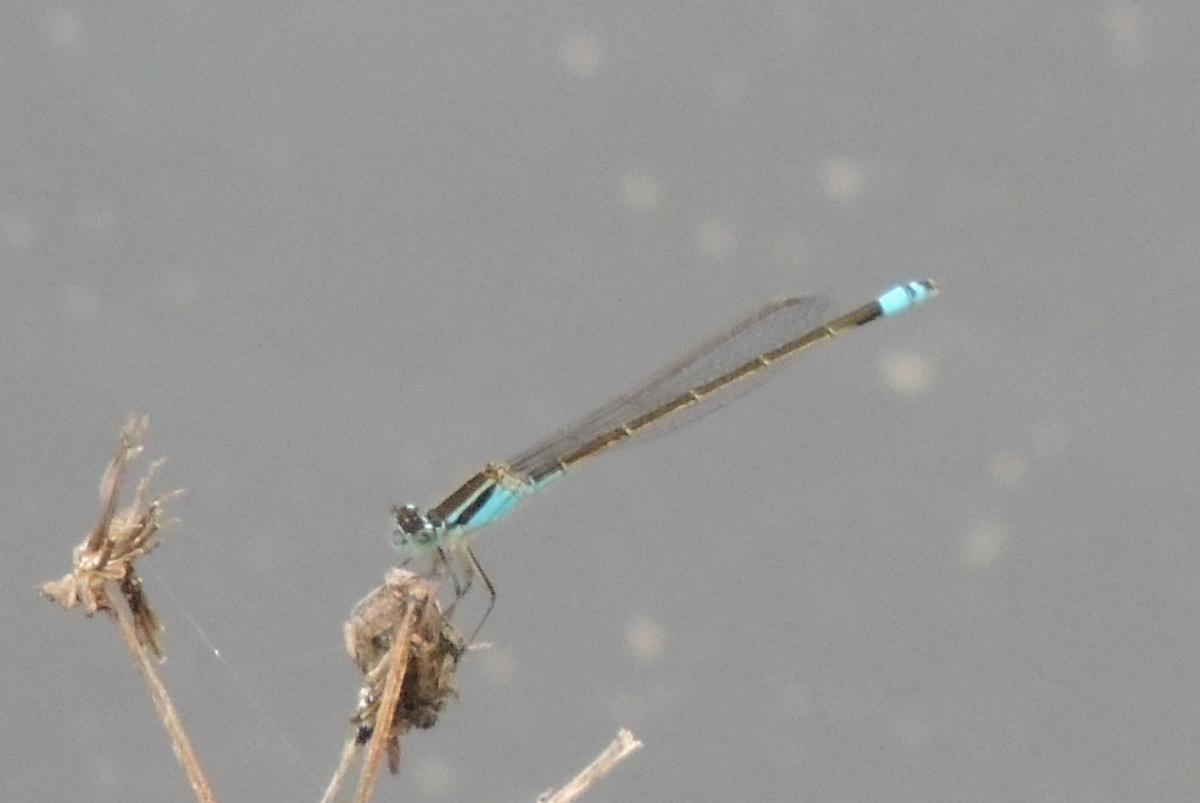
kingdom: Animalia
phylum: Arthropoda
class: Insecta
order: Odonata
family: Coenagrionidae
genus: Ischnura
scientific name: Ischnura ramburii
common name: Rambur's forktail
